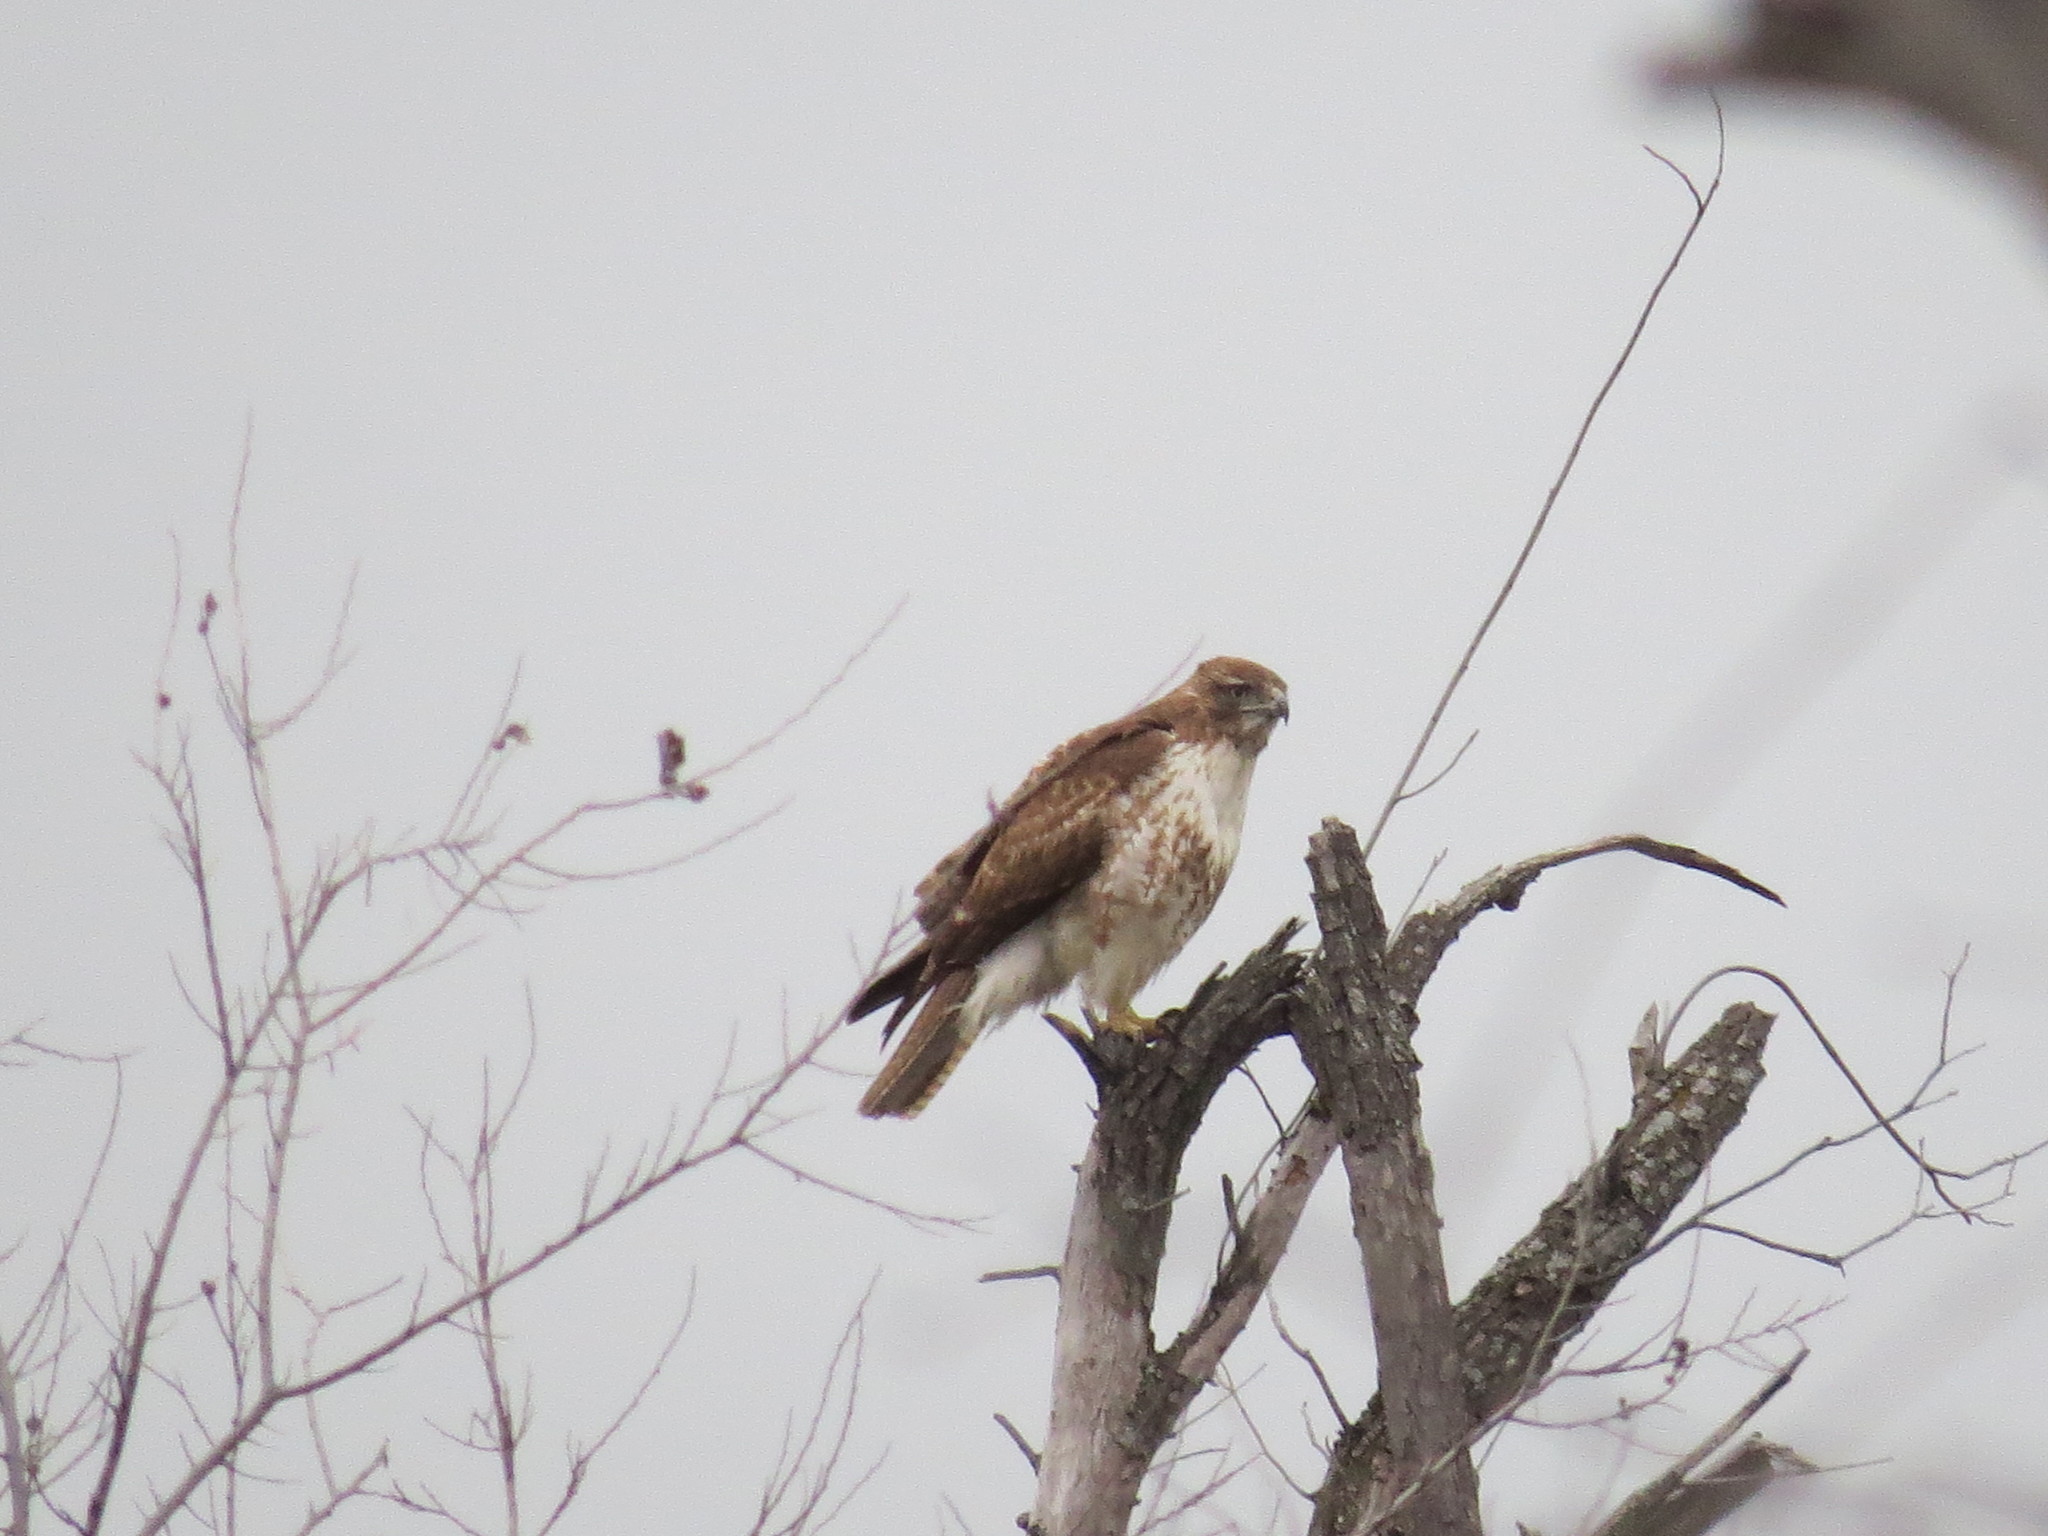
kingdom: Animalia
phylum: Chordata
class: Aves
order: Accipitriformes
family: Accipitridae
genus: Buteo
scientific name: Buteo jamaicensis
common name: Red-tailed hawk
